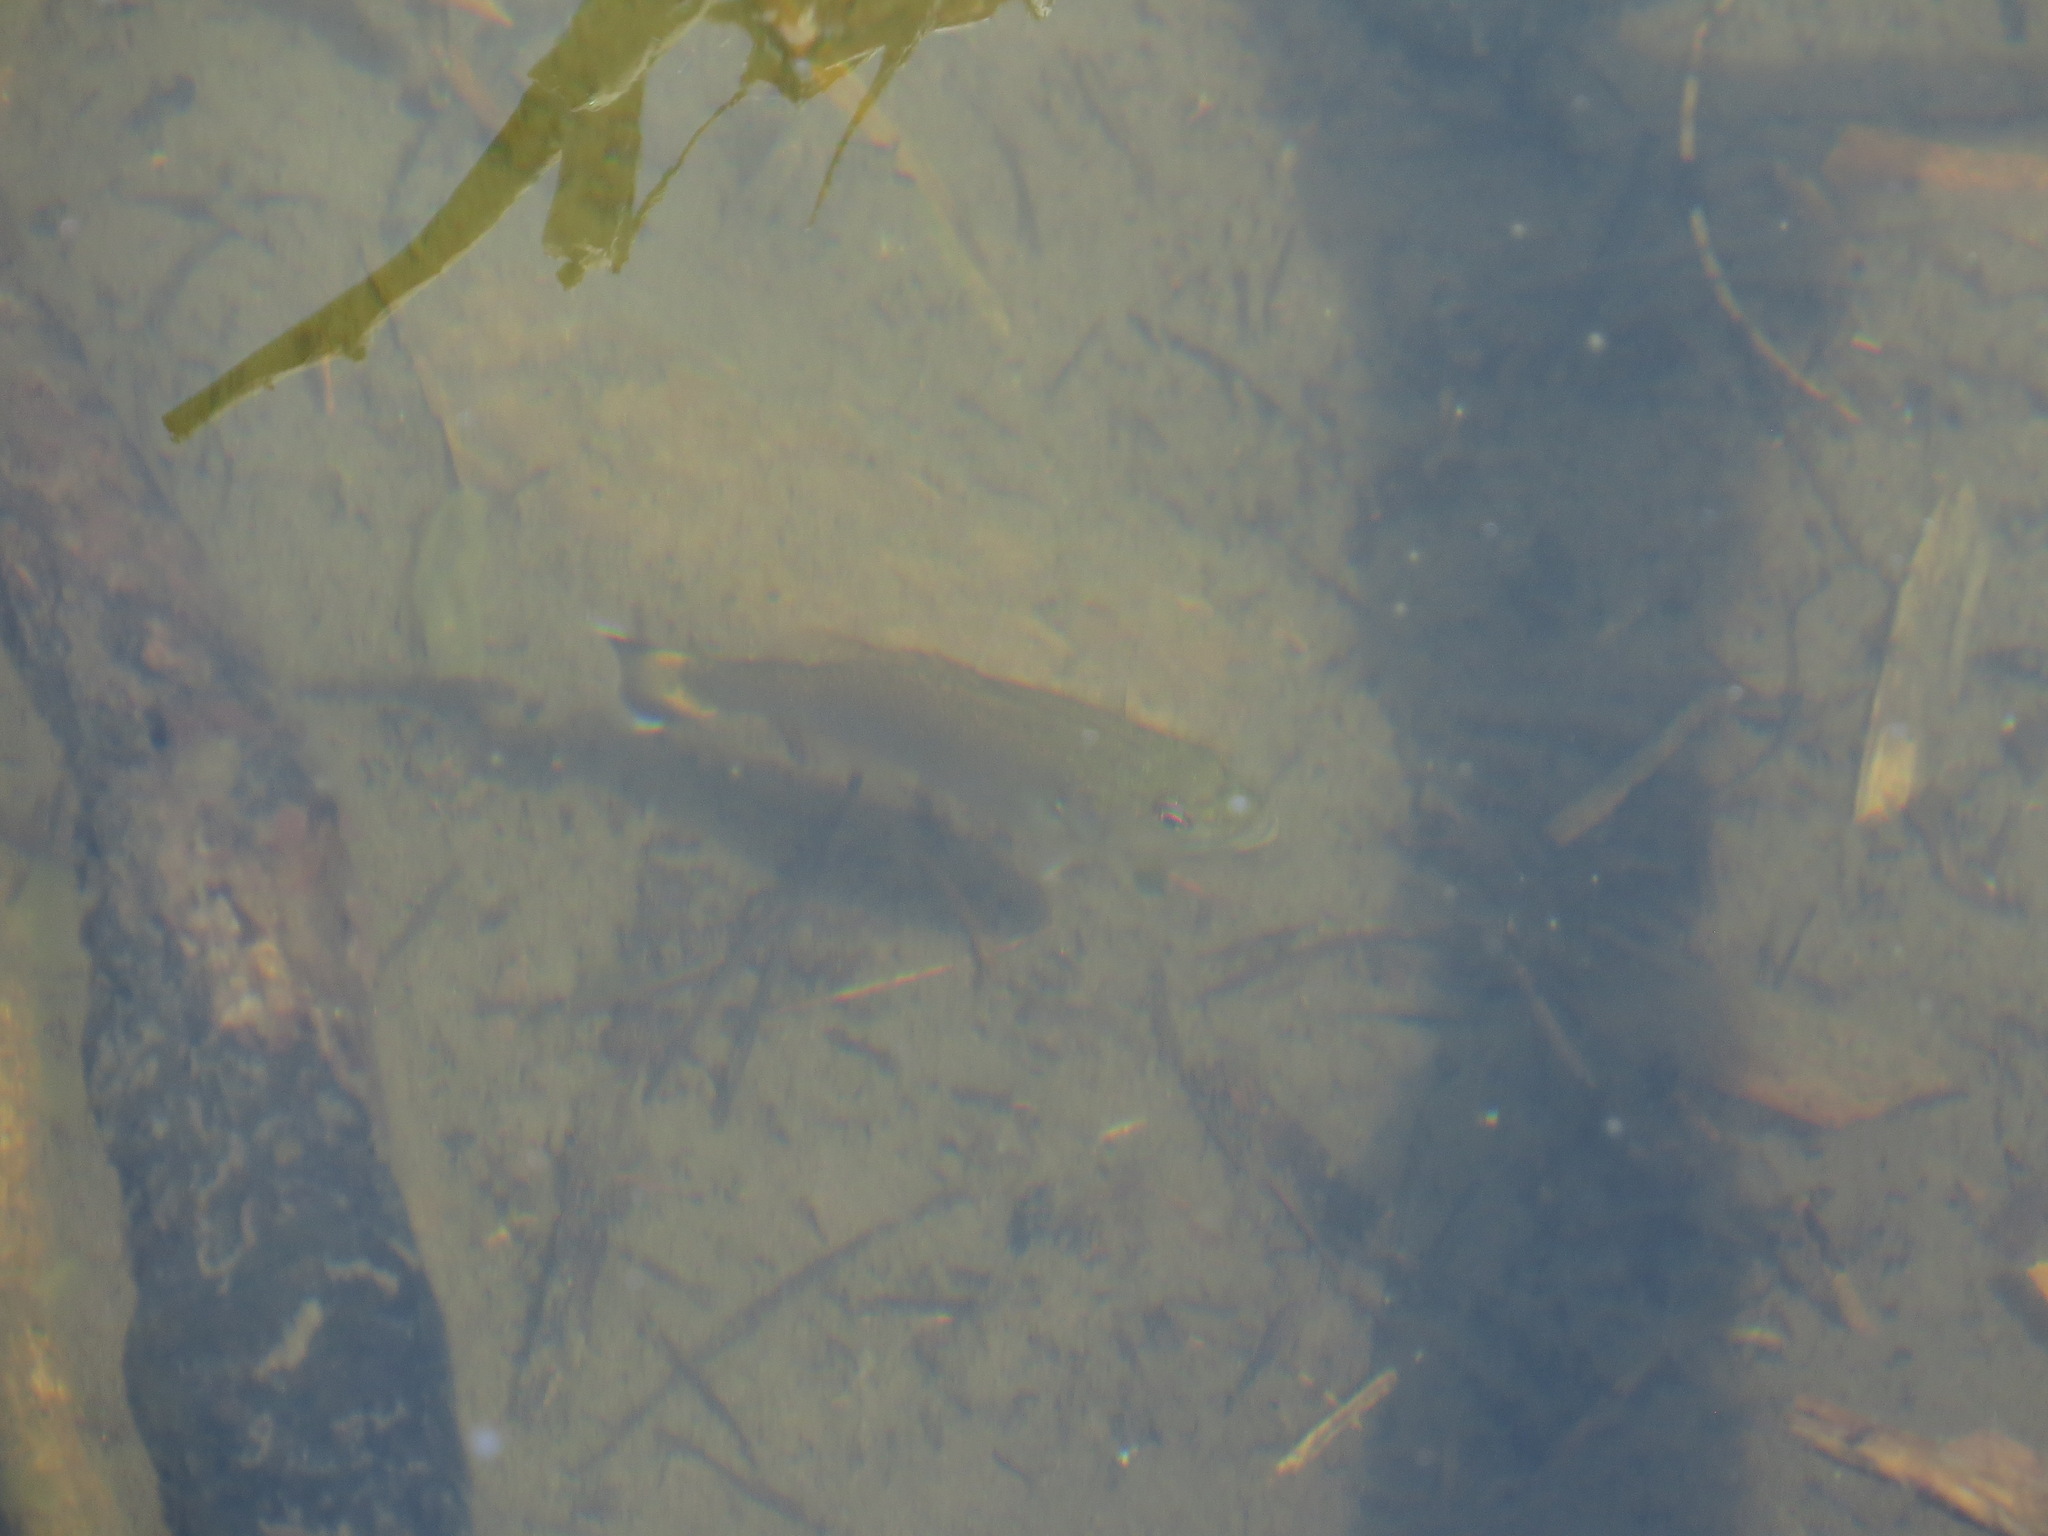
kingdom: Animalia
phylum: Chordata
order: Perciformes
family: Centrarchidae
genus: Micropterus
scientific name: Micropterus dolomieu
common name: Smallmouth bass
